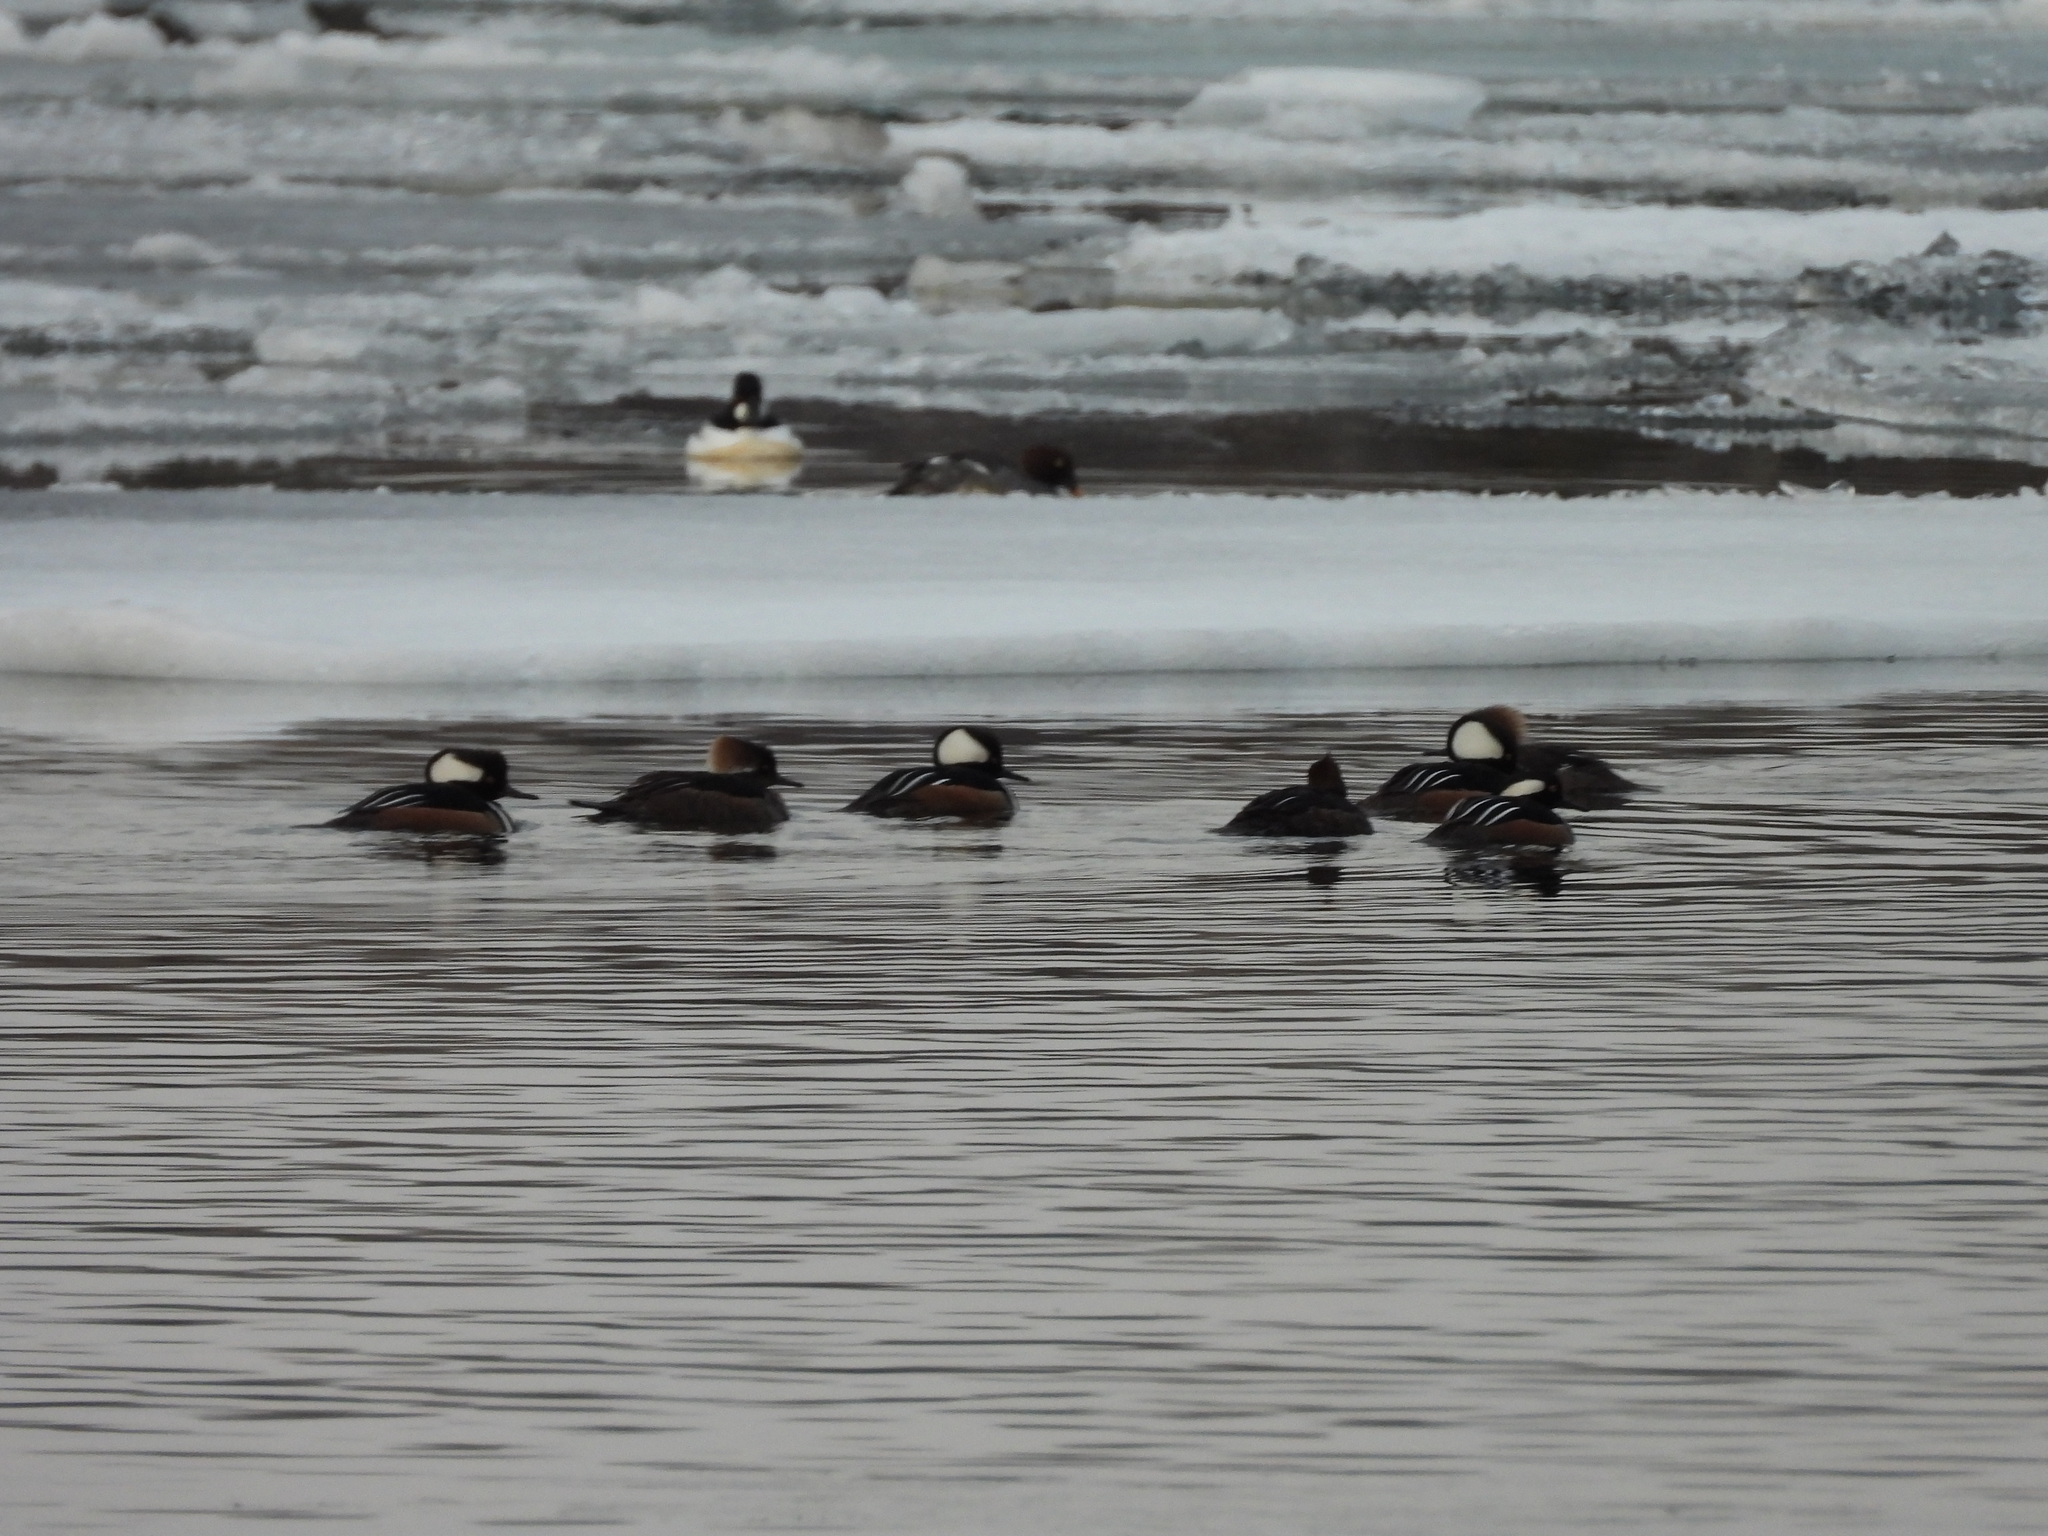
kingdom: Animalia
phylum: Chordata
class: Aves
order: Anseriformes
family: Anatidae
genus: Lophodytes
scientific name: Lophodytes cucullatus
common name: Hooded merganser
